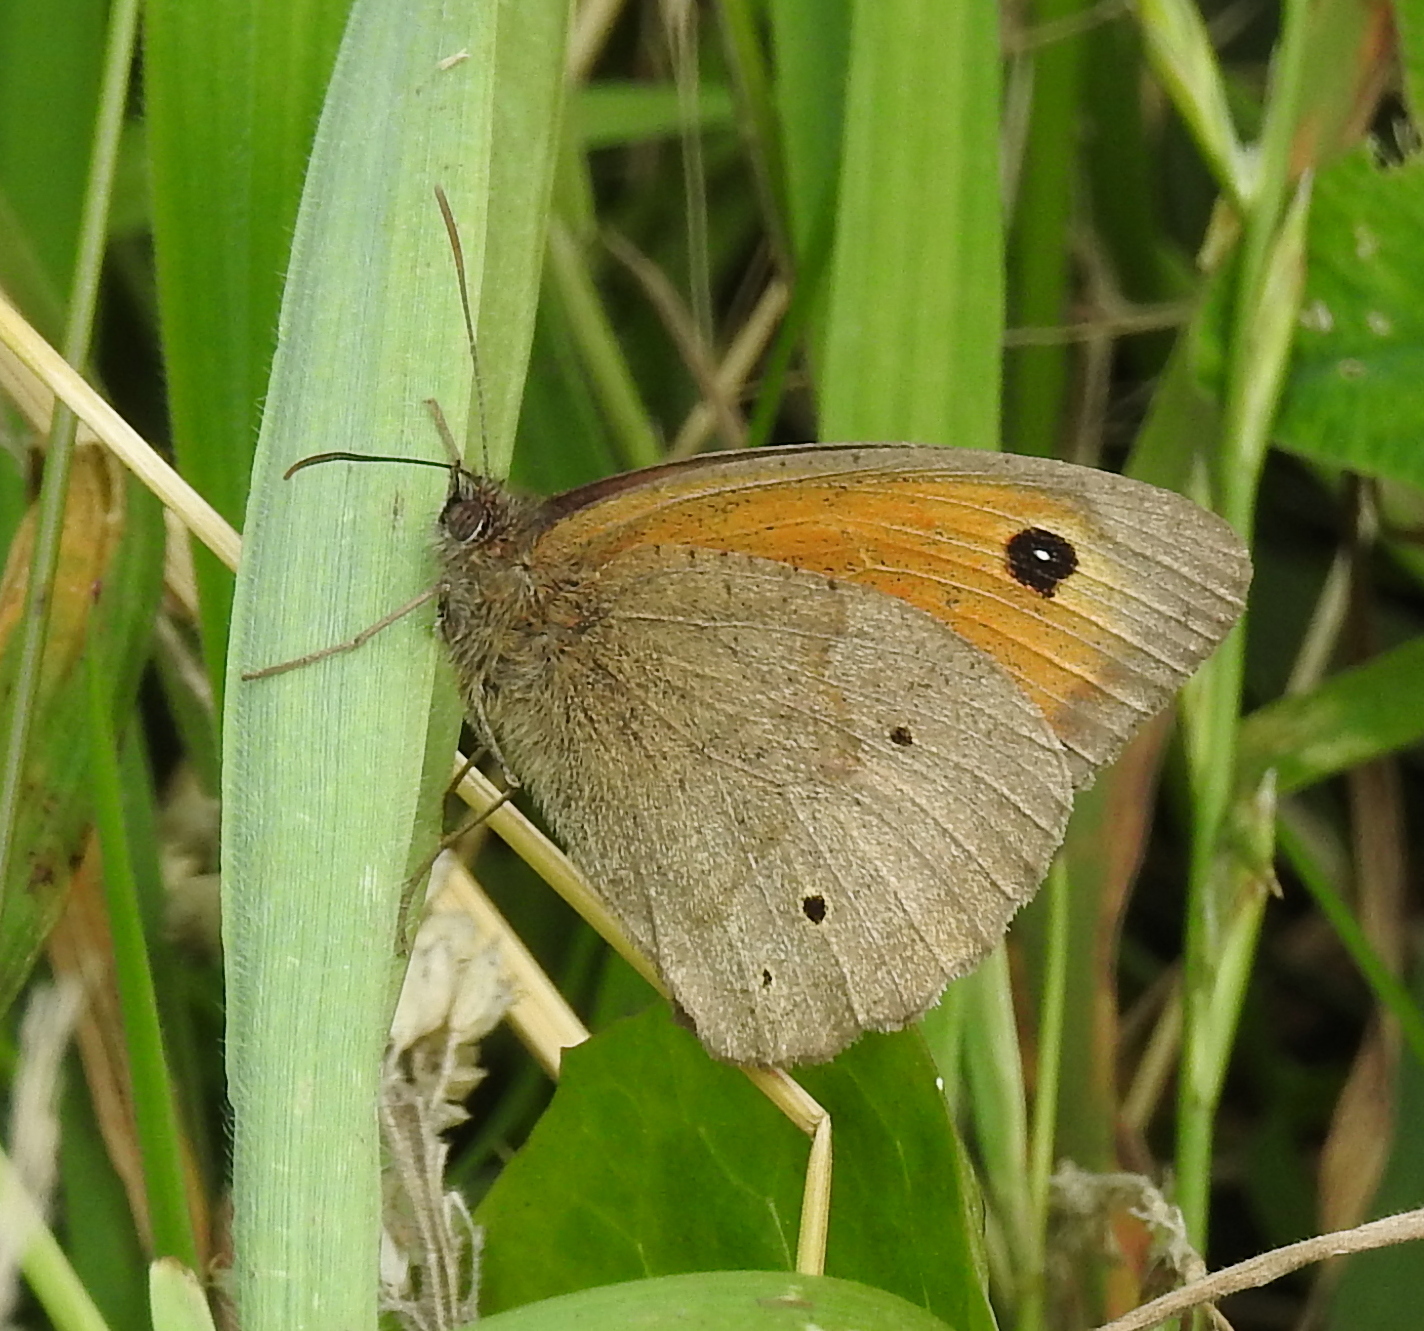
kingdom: Animalia
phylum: Arthropoda
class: Insecta
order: Lepidoptera
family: Nymphalidae
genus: Maniola
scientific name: Maniola jurtina
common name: Meadow brown
